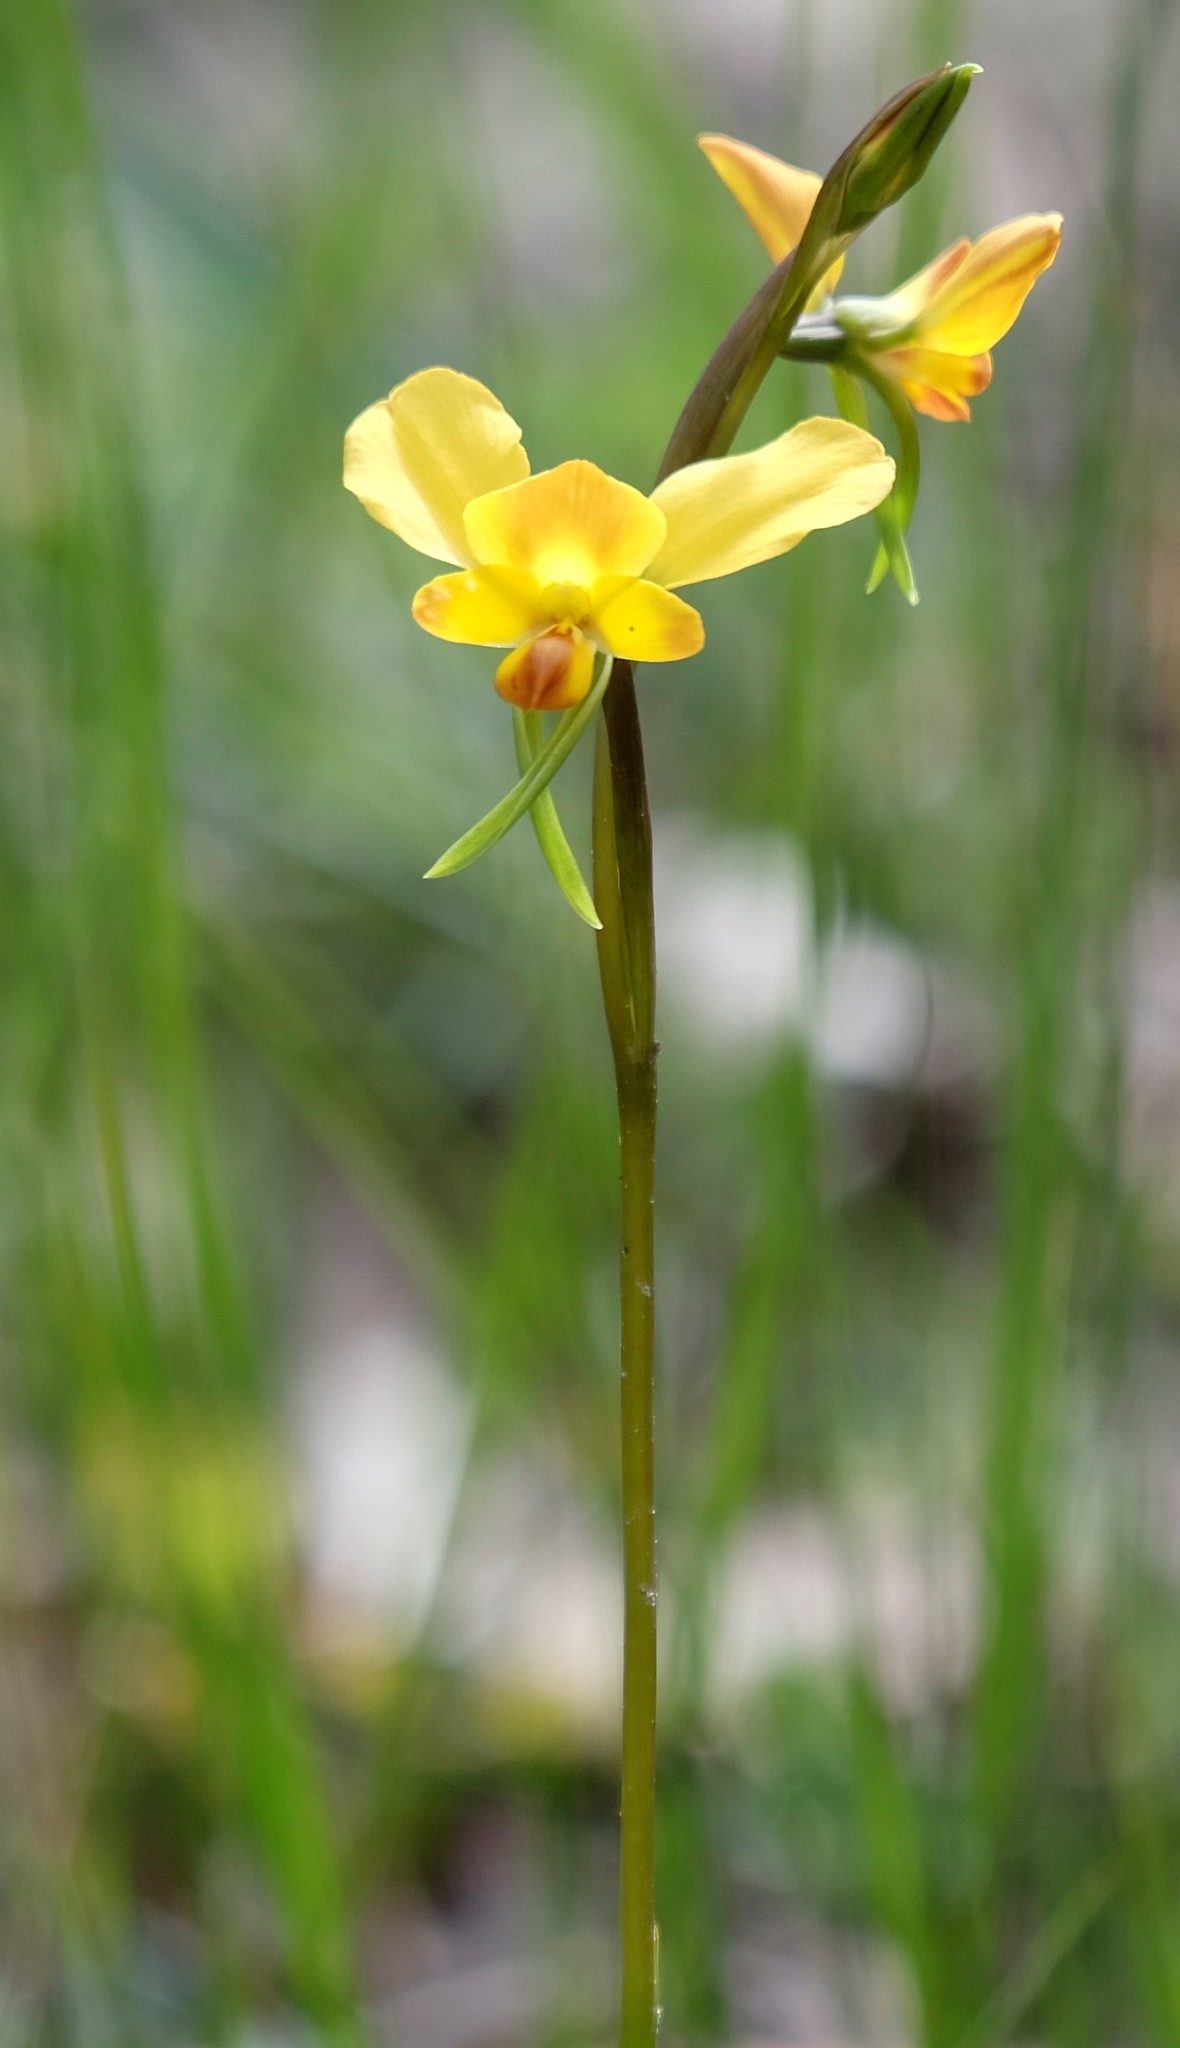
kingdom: Plantae
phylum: Tracheophyta
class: Liliopsida
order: Asparagales
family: Orchidaceae
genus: Diuris
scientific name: Diuris orientis
